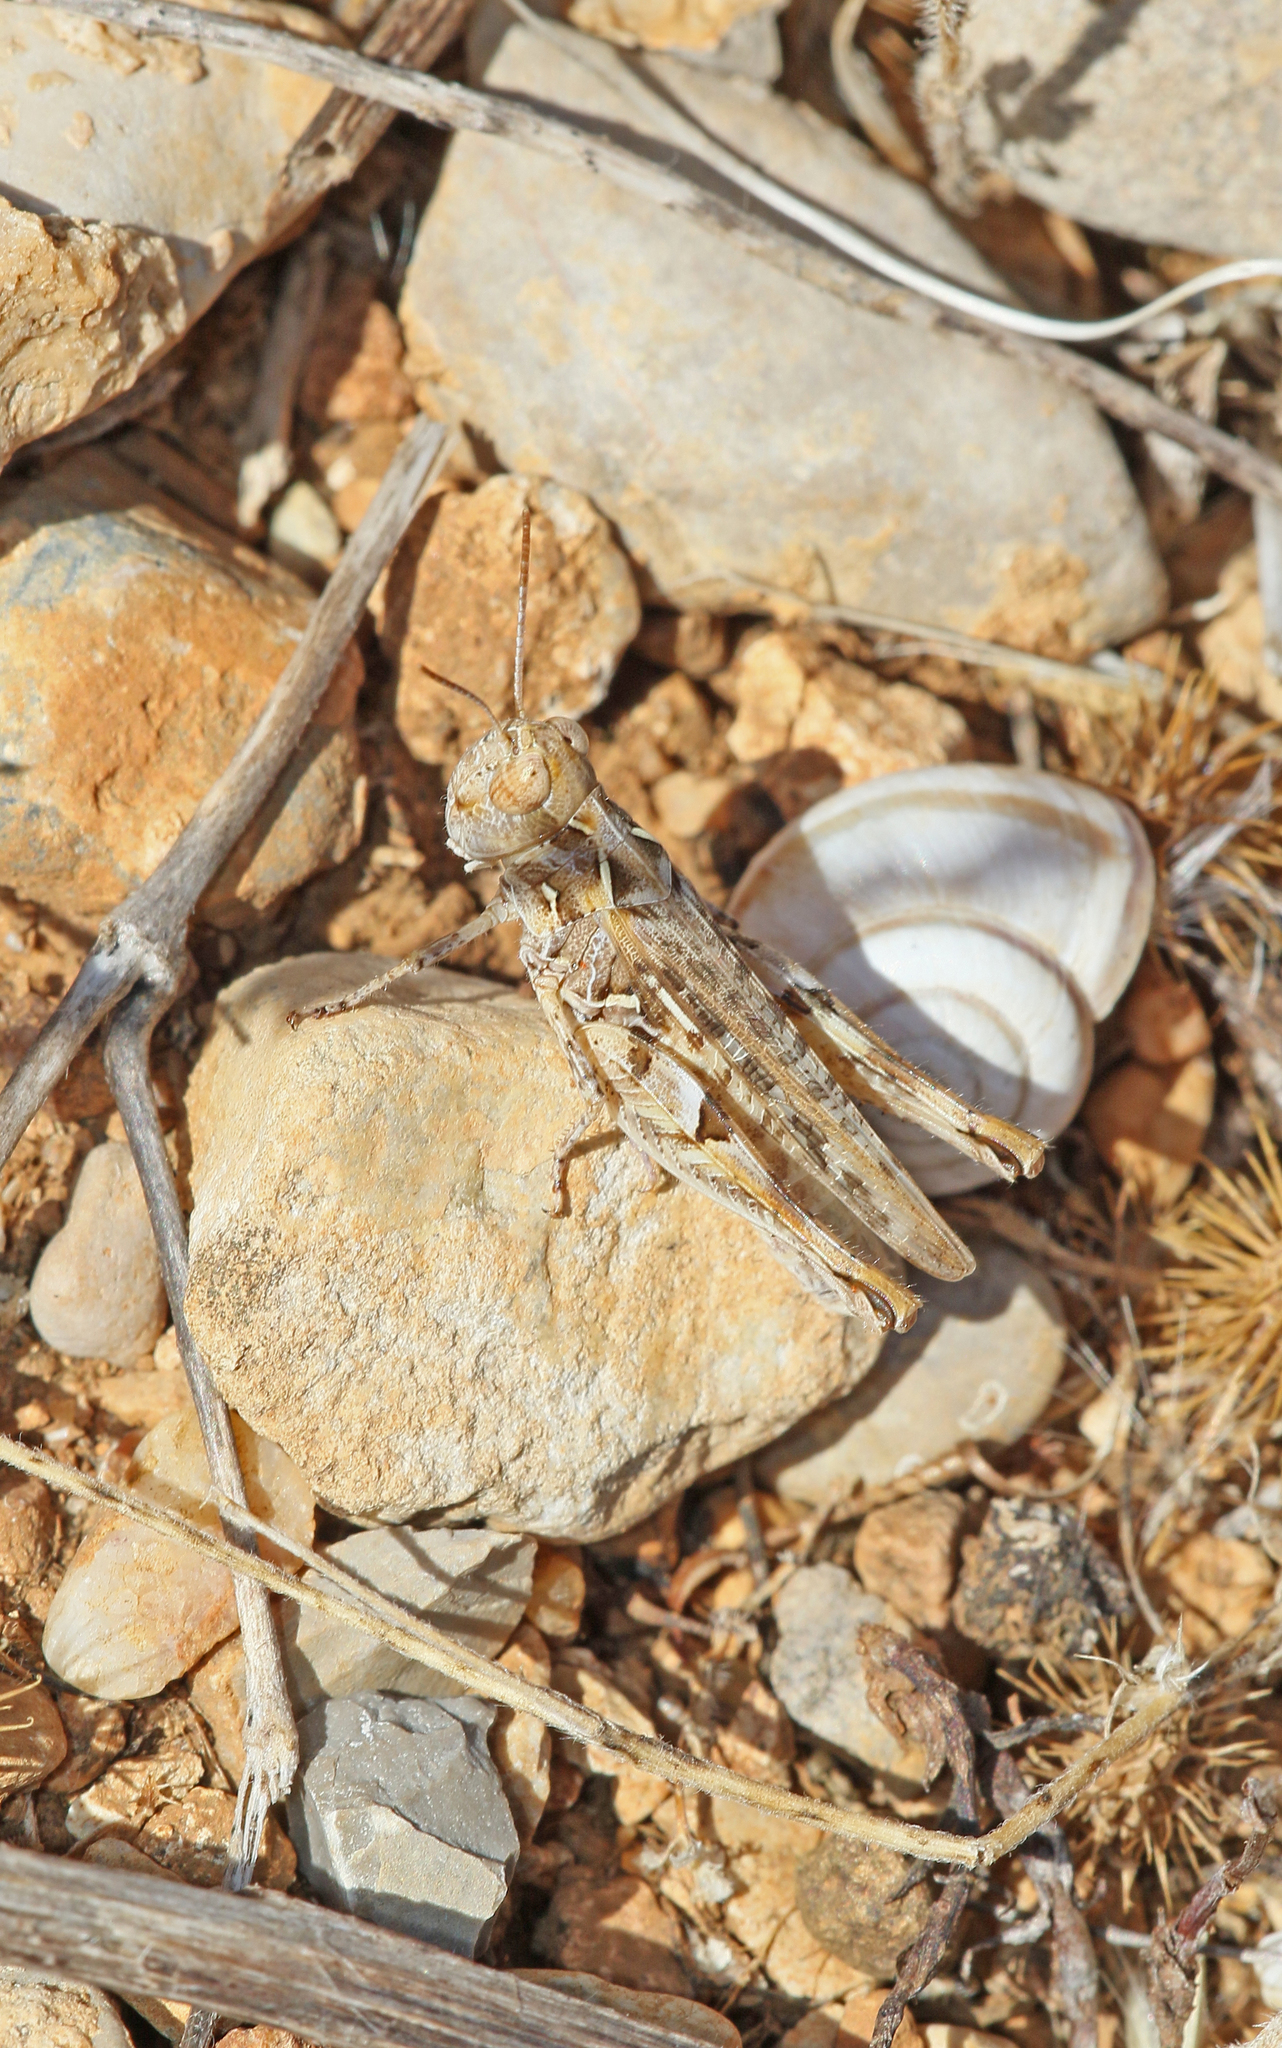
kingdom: Animalia
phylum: Arthropoda
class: Insecta
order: Orthoptera
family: Acrididae
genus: Dociostaurus
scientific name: Dociostaurus jagoi
